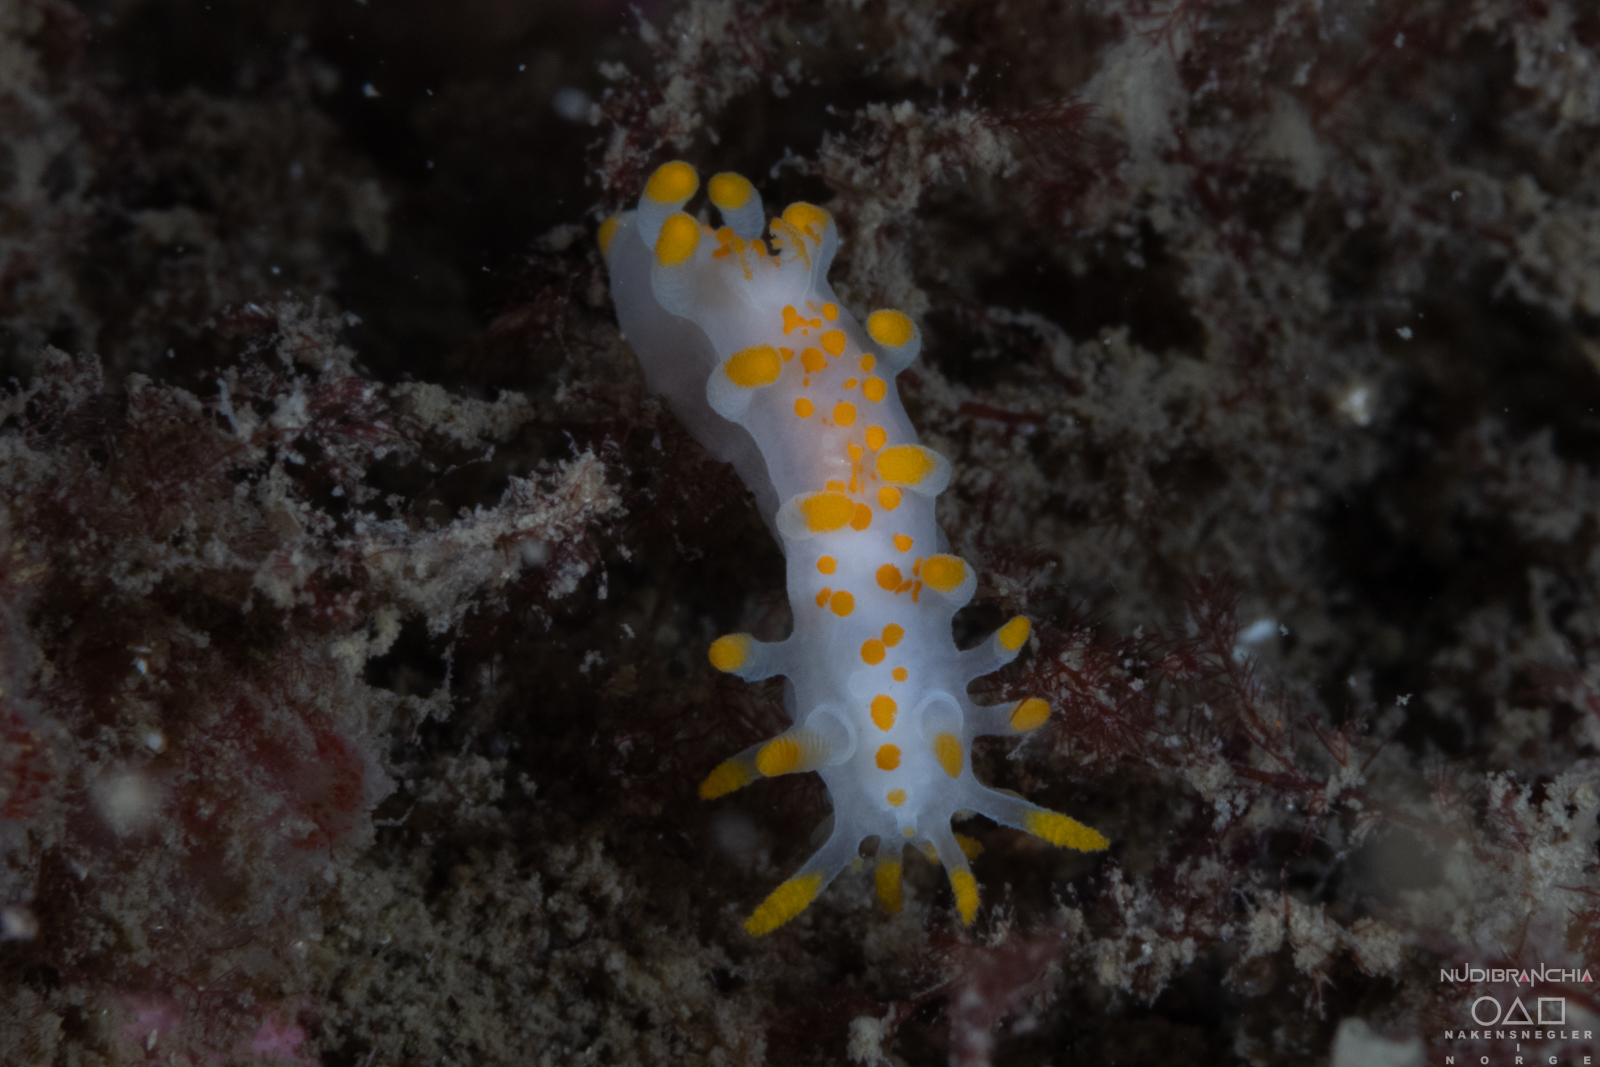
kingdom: Animalia
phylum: Mollusca
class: Gastropoda
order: Nudibranchia
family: Polyceridae
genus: Limacia
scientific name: Limacia clavigera
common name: Orange-clubbed sea slug
